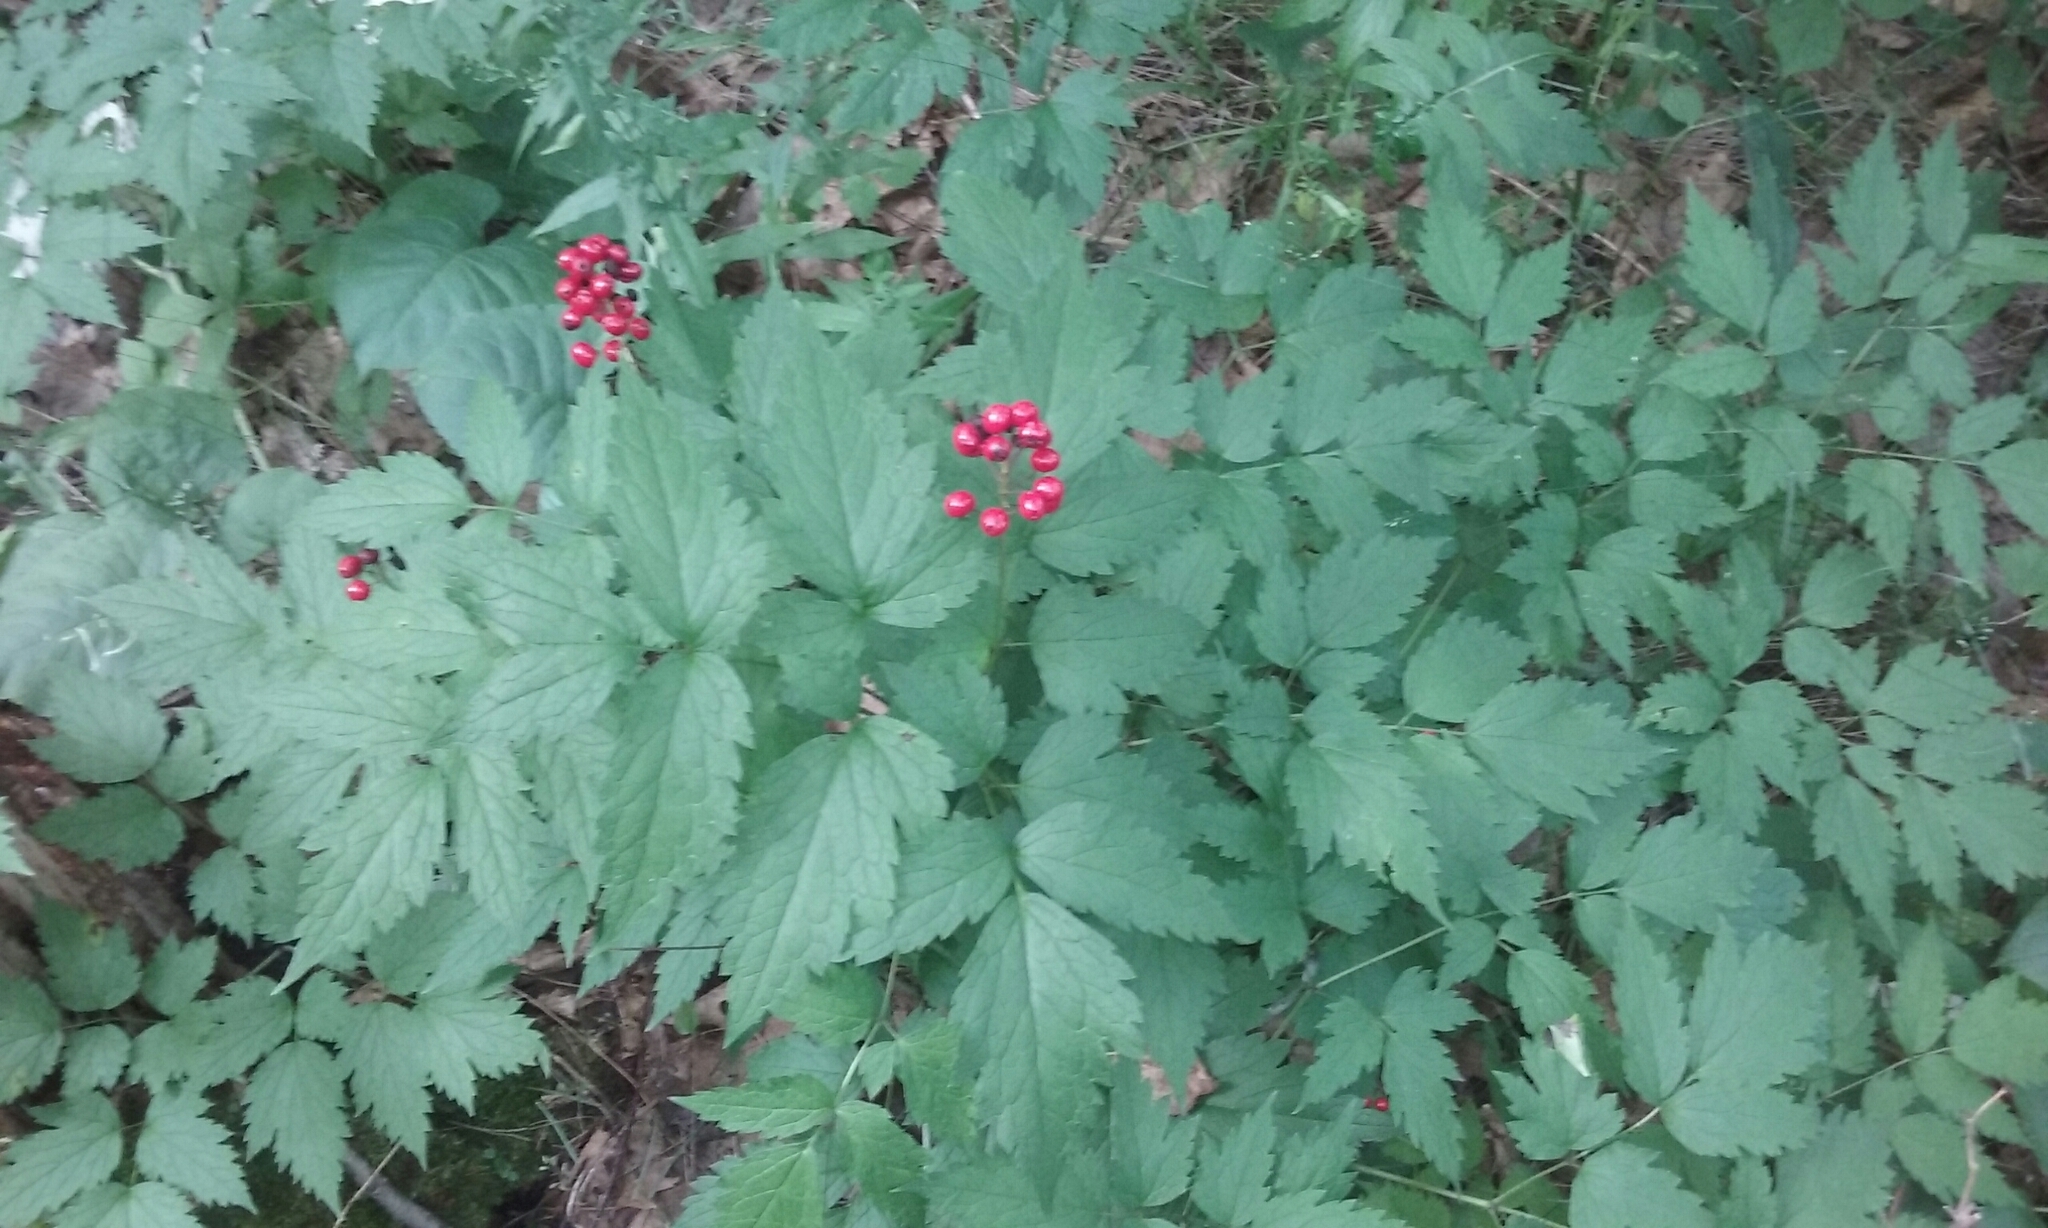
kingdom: Plantae
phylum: Tracheophyta
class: Magnoliopsida
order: Ranunculales
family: Ranunculaceae
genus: Actaea
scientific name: Actaea rubra
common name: Red baneberry
